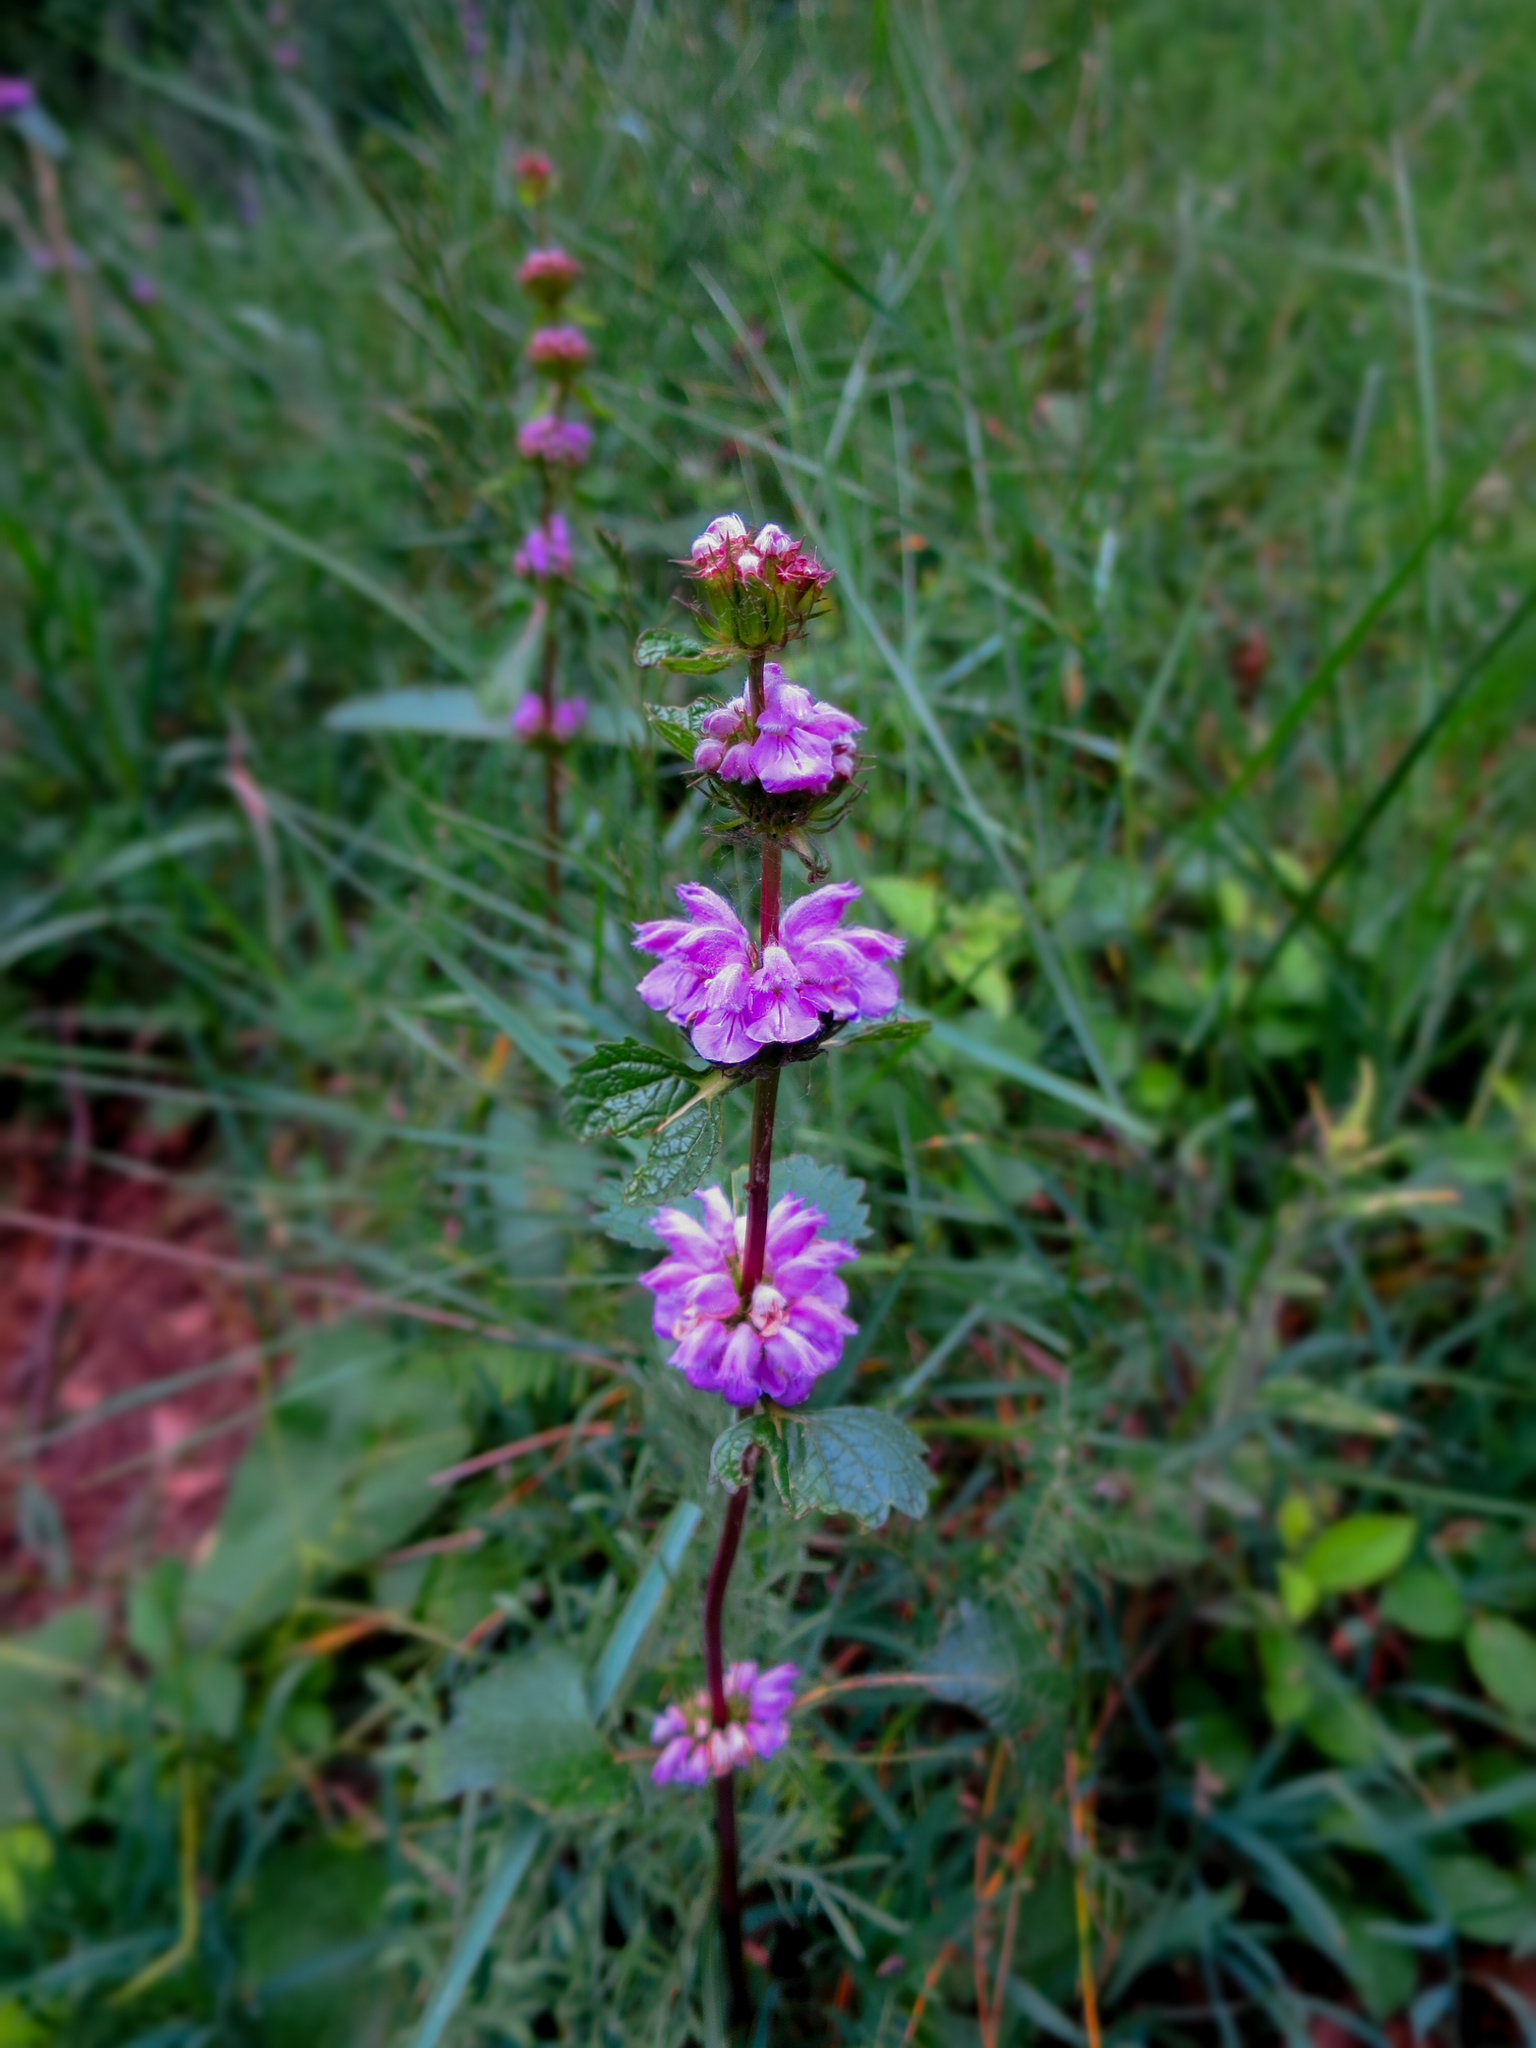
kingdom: Plantae
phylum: Tracheophyta
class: Magnoliopsida
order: Lamiales
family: Lamiaceae
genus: Phlomoides
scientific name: Phlomoides tuberosa
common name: Tuberous jerusalem sage
